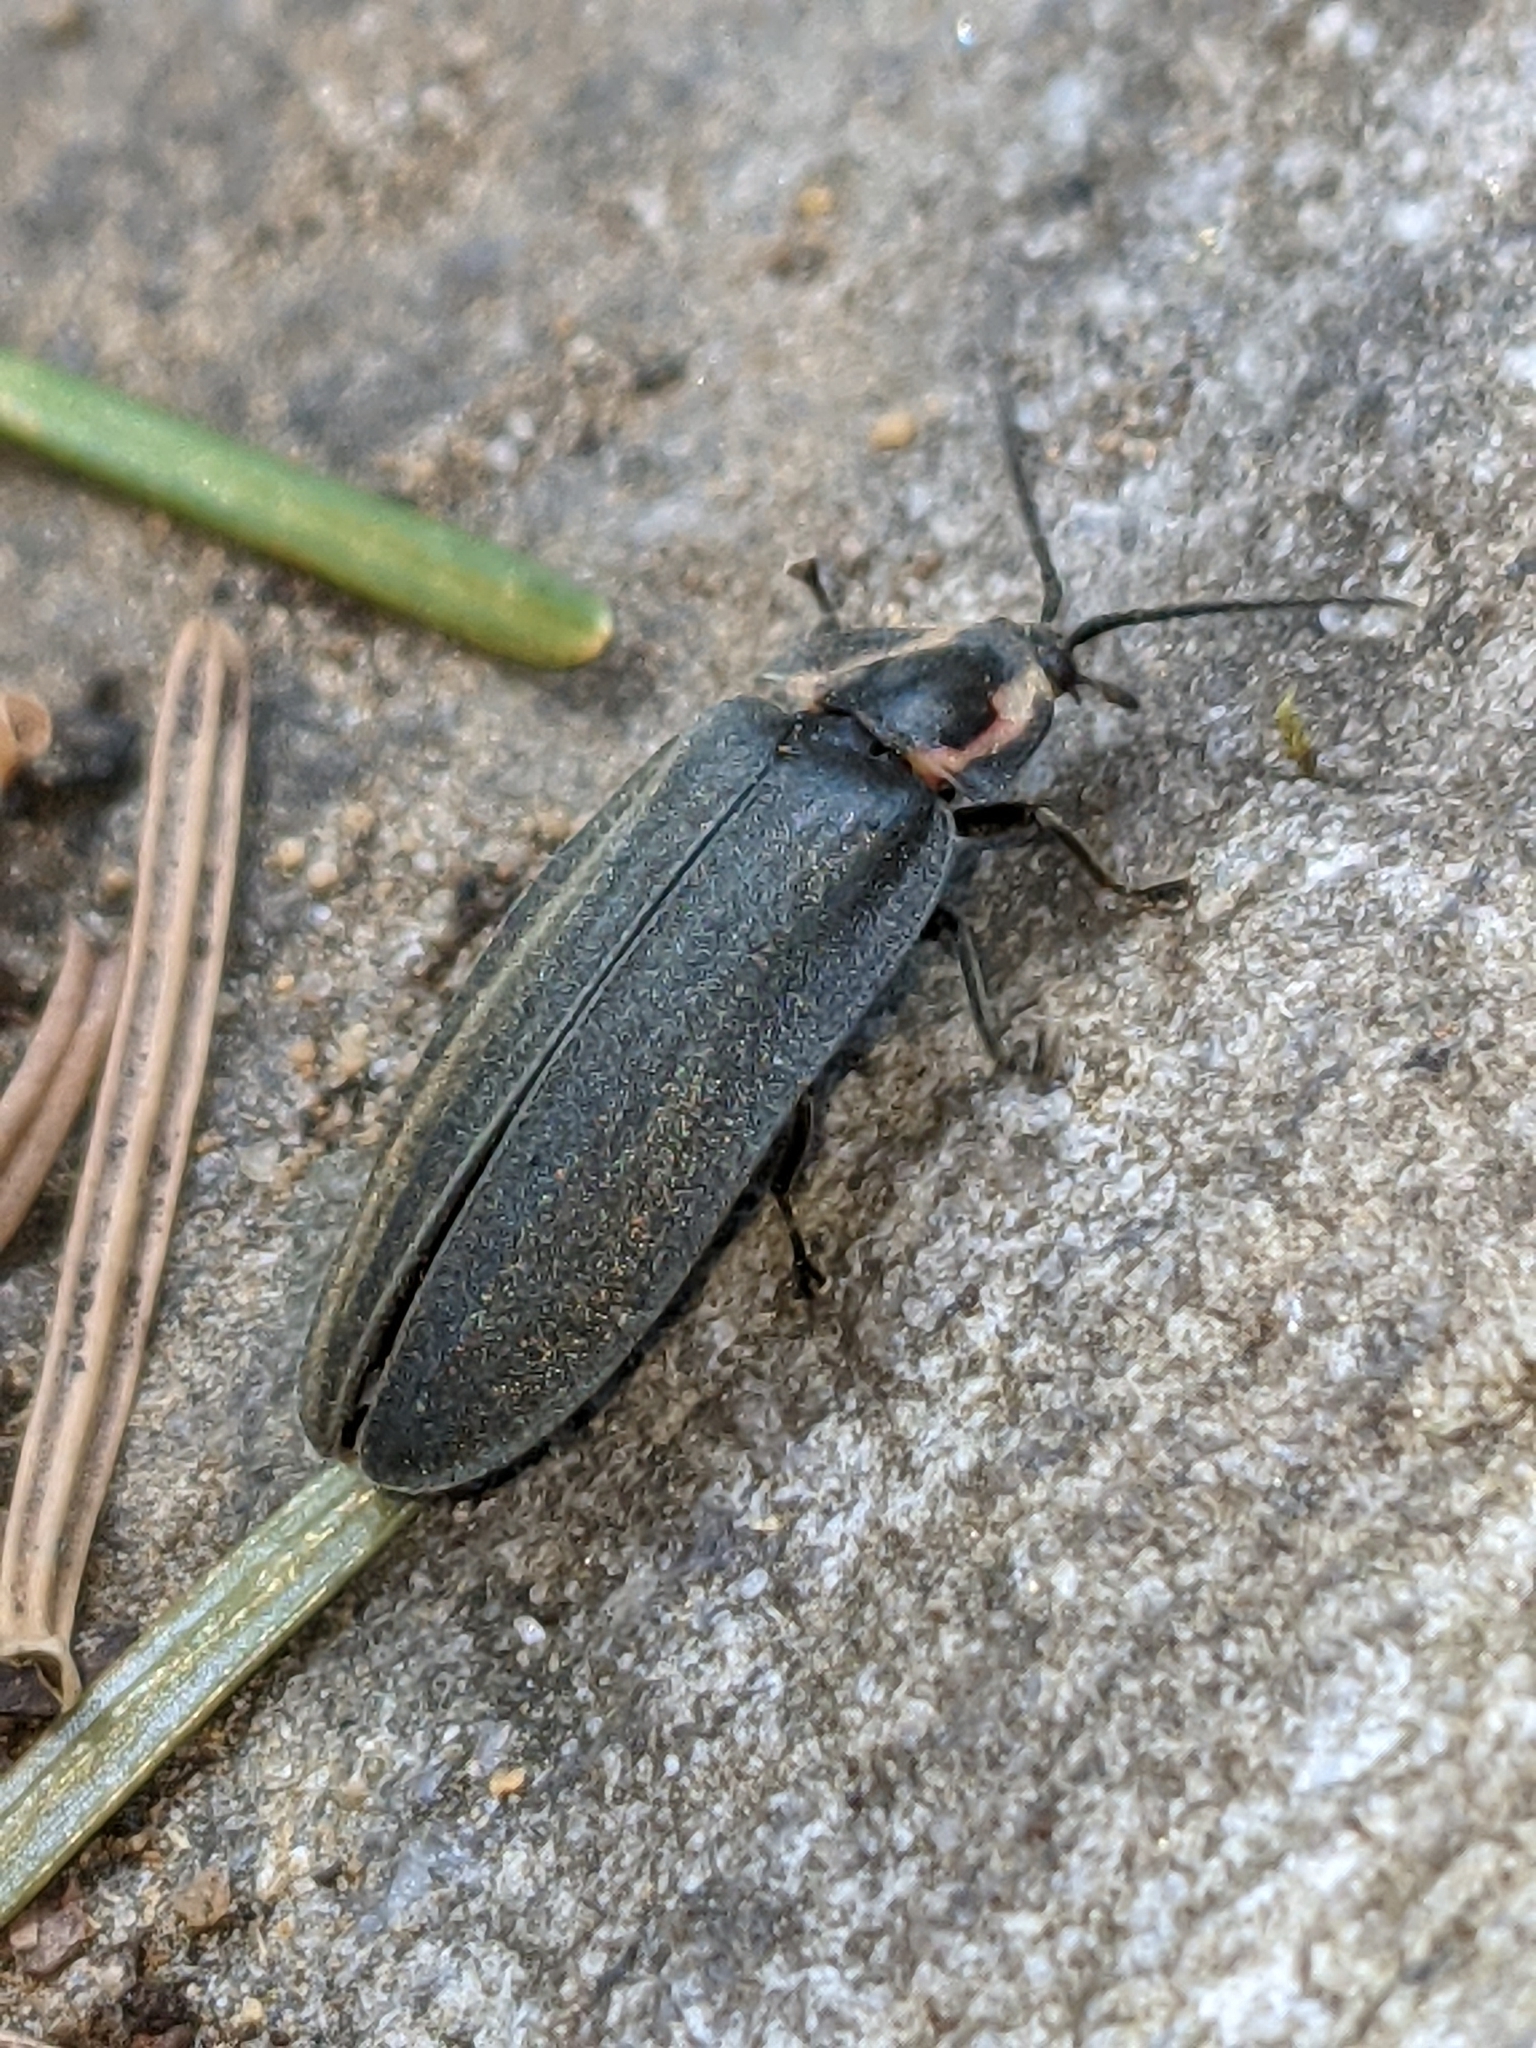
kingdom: Animalia
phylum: Arthropoda
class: Insecta
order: Coleoptera
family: Lampyridae
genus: Photinus
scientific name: Photinus corrusca
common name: Winter firefly
